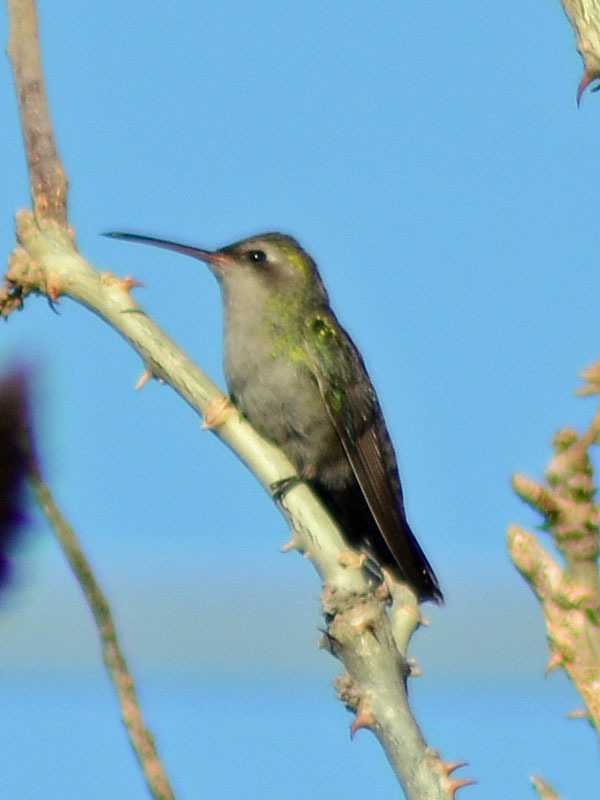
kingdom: Animalia
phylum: Chordata
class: Aves
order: Apodiformes
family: Trochilidae
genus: Cynanthus
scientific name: Cynanthus latirostris
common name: Broad-billed hummingbird
